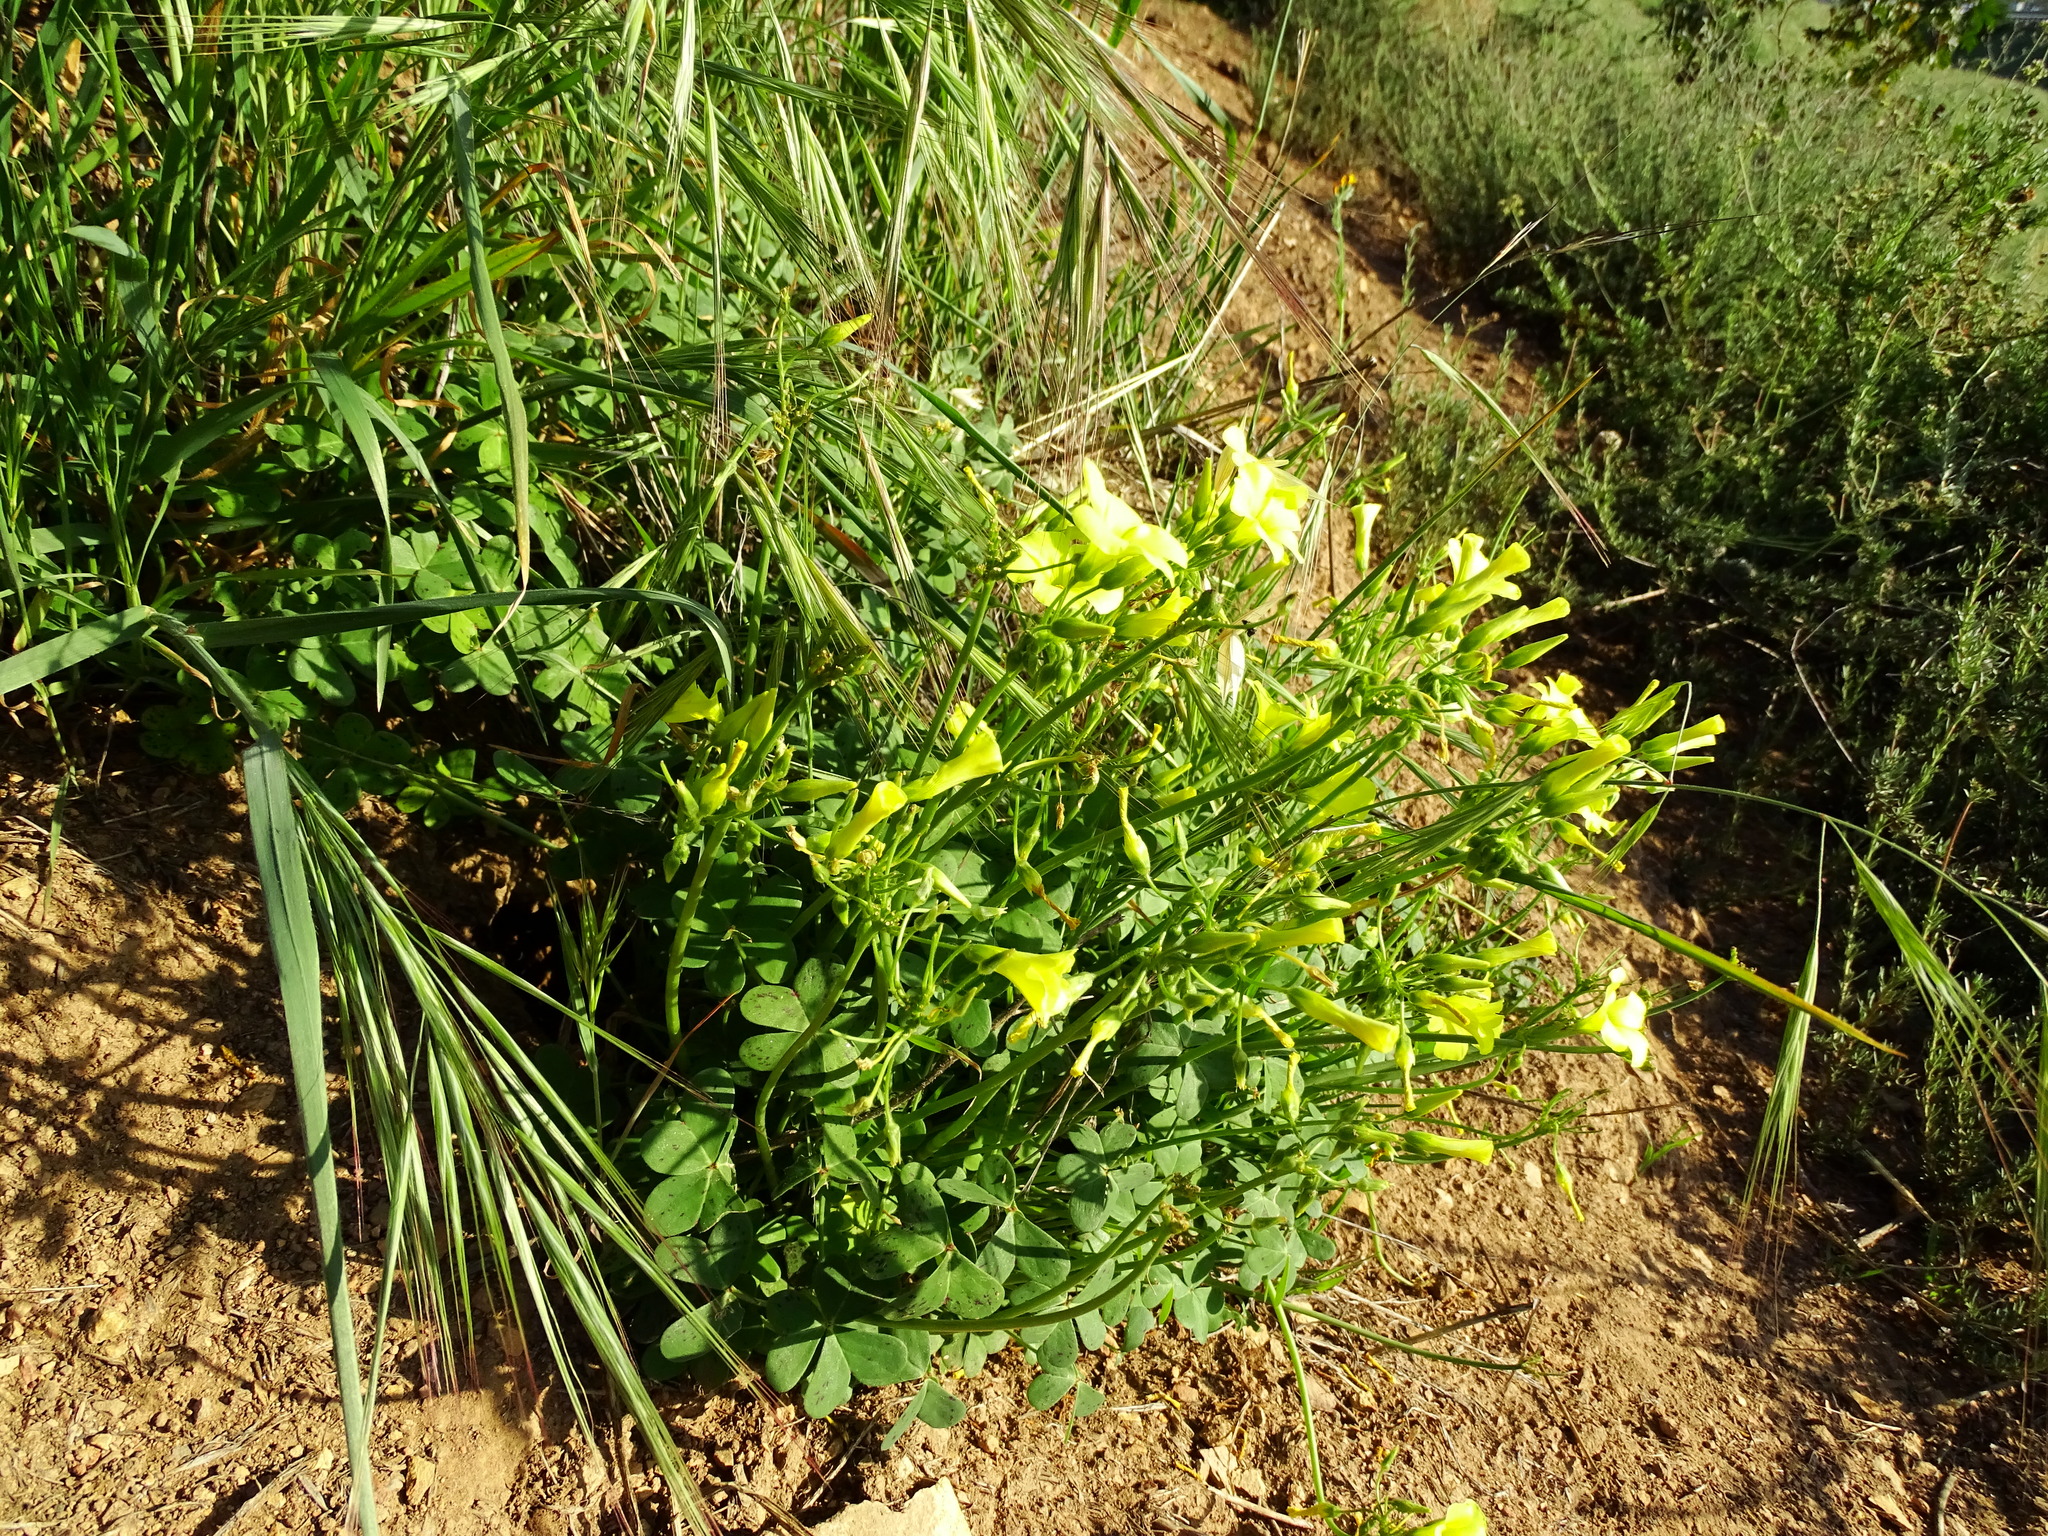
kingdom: Plantae
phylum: Tracheophyta
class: Magnoliopsida
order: Oxalidales
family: Oxalidaceae
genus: Oxalis
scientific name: Oxalis pes-caprae
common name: Bermuda-buttercup
